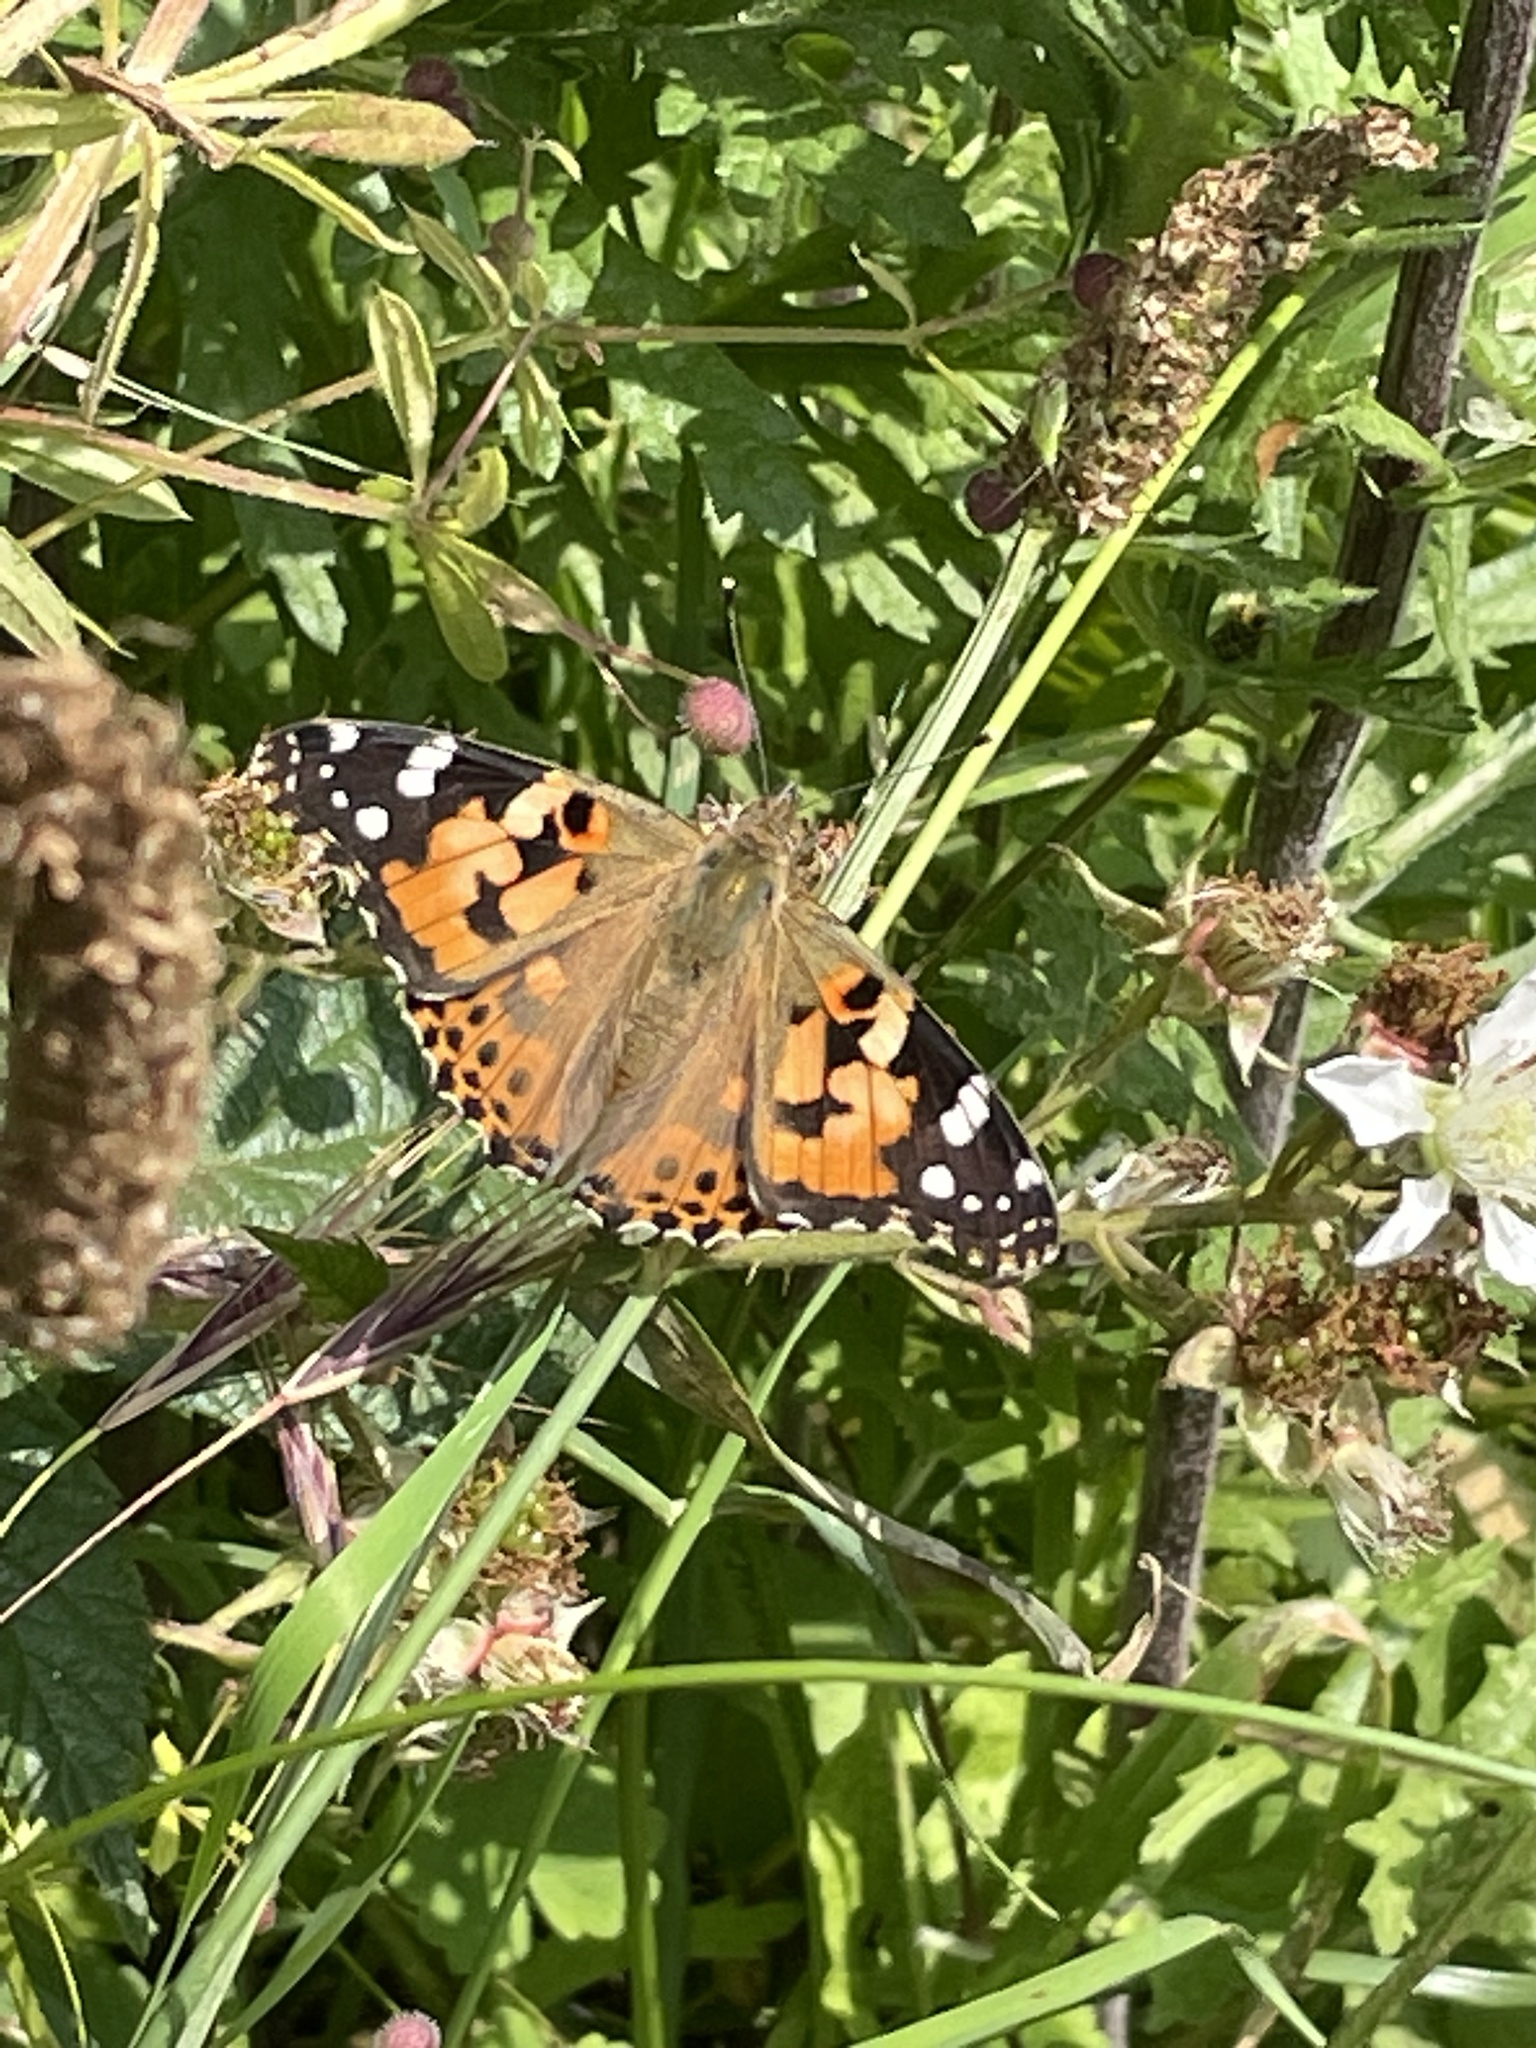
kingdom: Animalia
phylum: Arthropoda
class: Insecta
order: Lepidoptera
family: Nymphalidae
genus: Vanessa
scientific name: Vanessa cardui
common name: Painted lady
